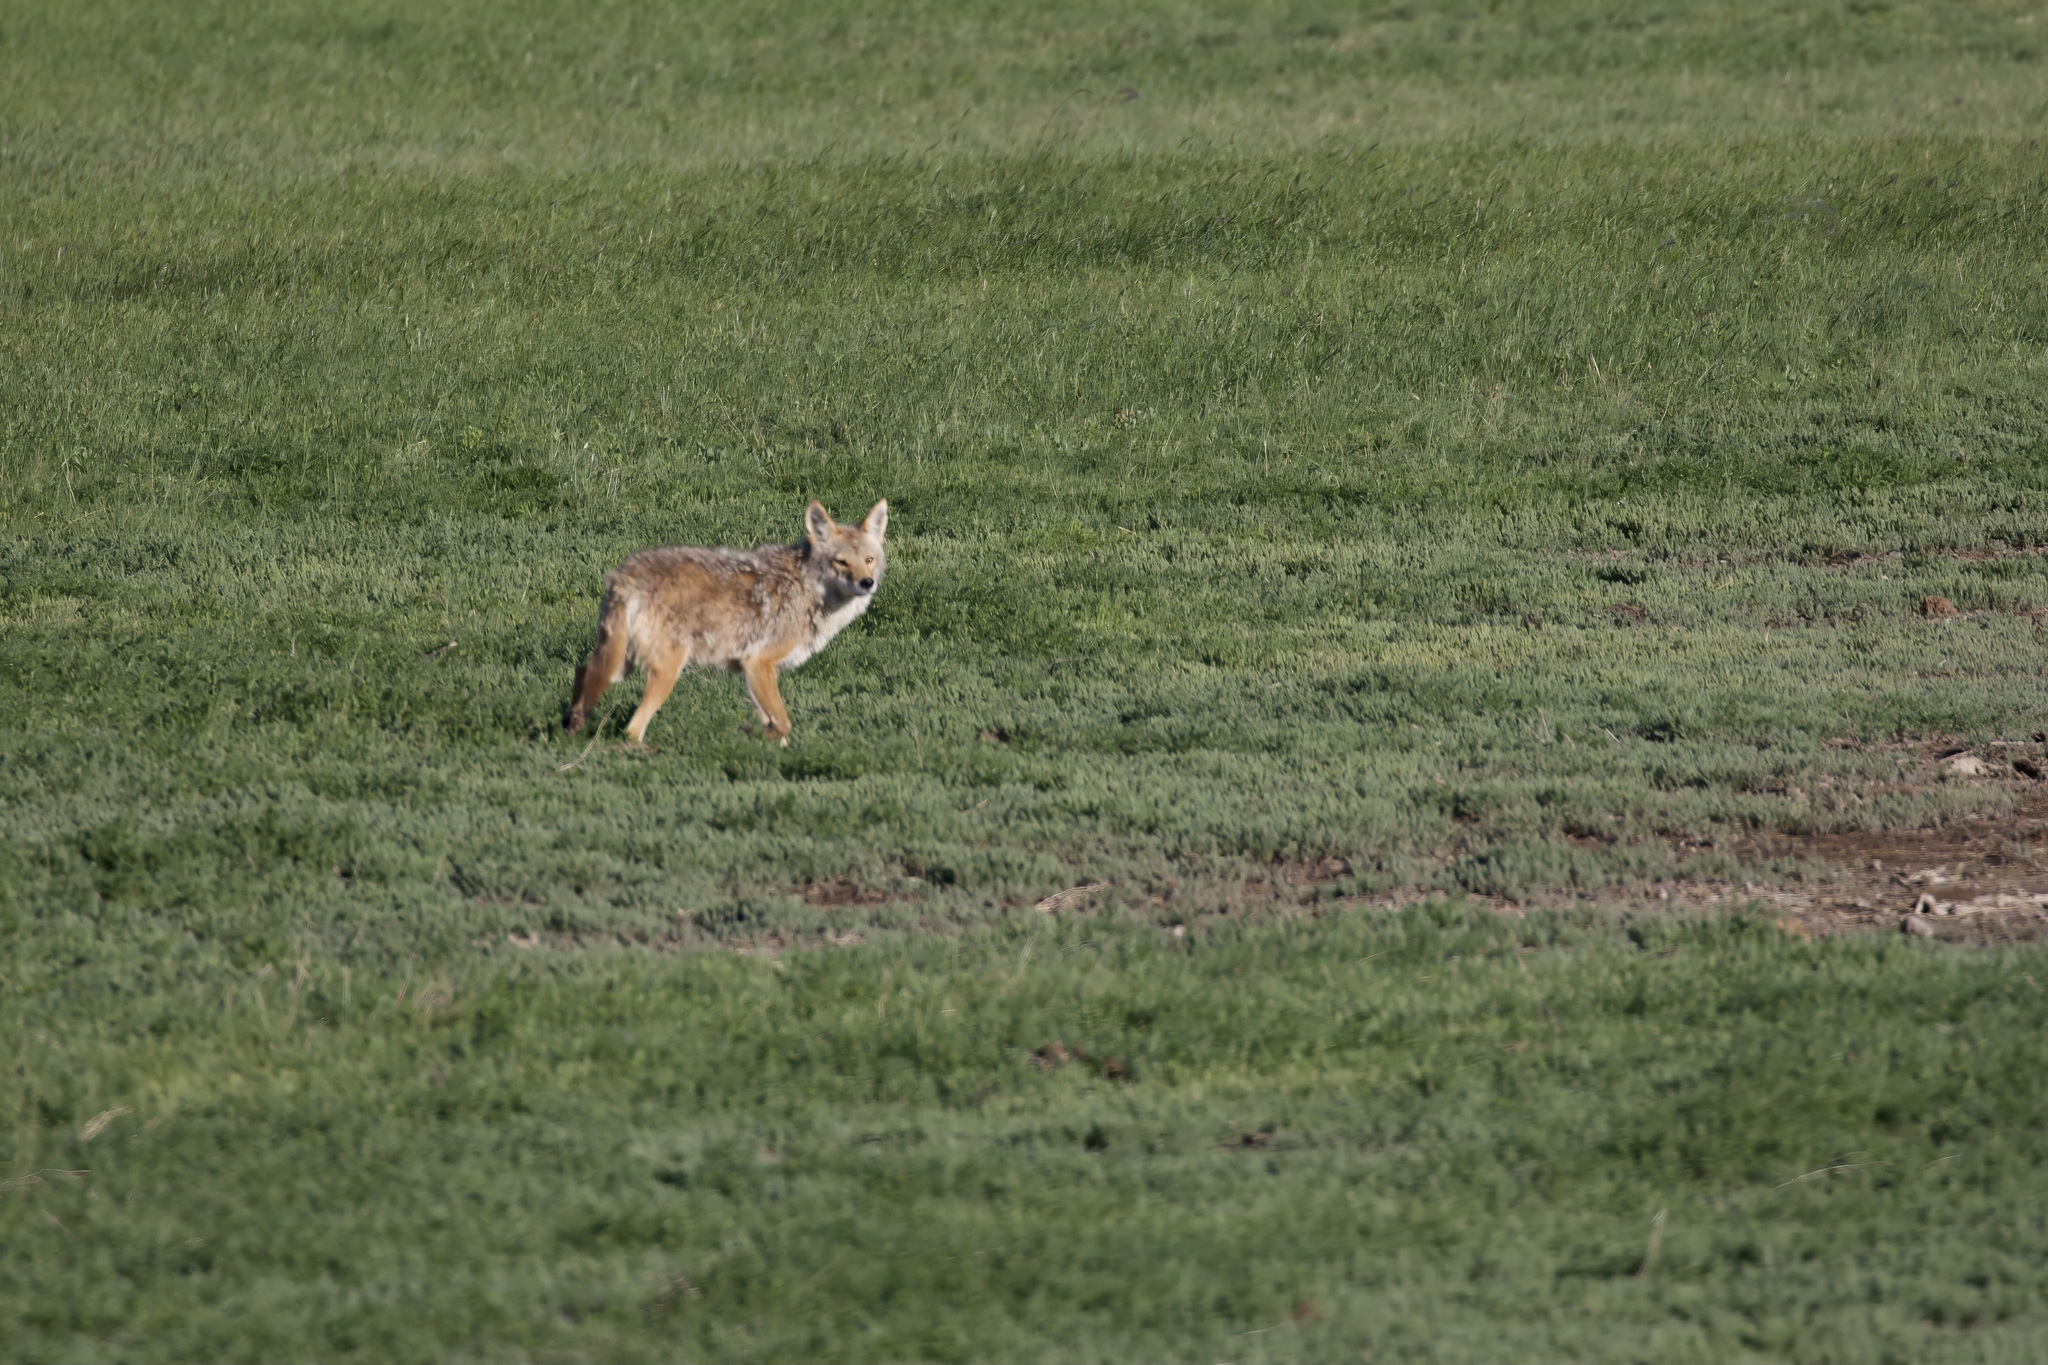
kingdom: Animalia
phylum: Chordata
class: Mammalia
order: Carnivora
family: Canidae
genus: Canis
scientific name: Canis latrans
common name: Coyote
